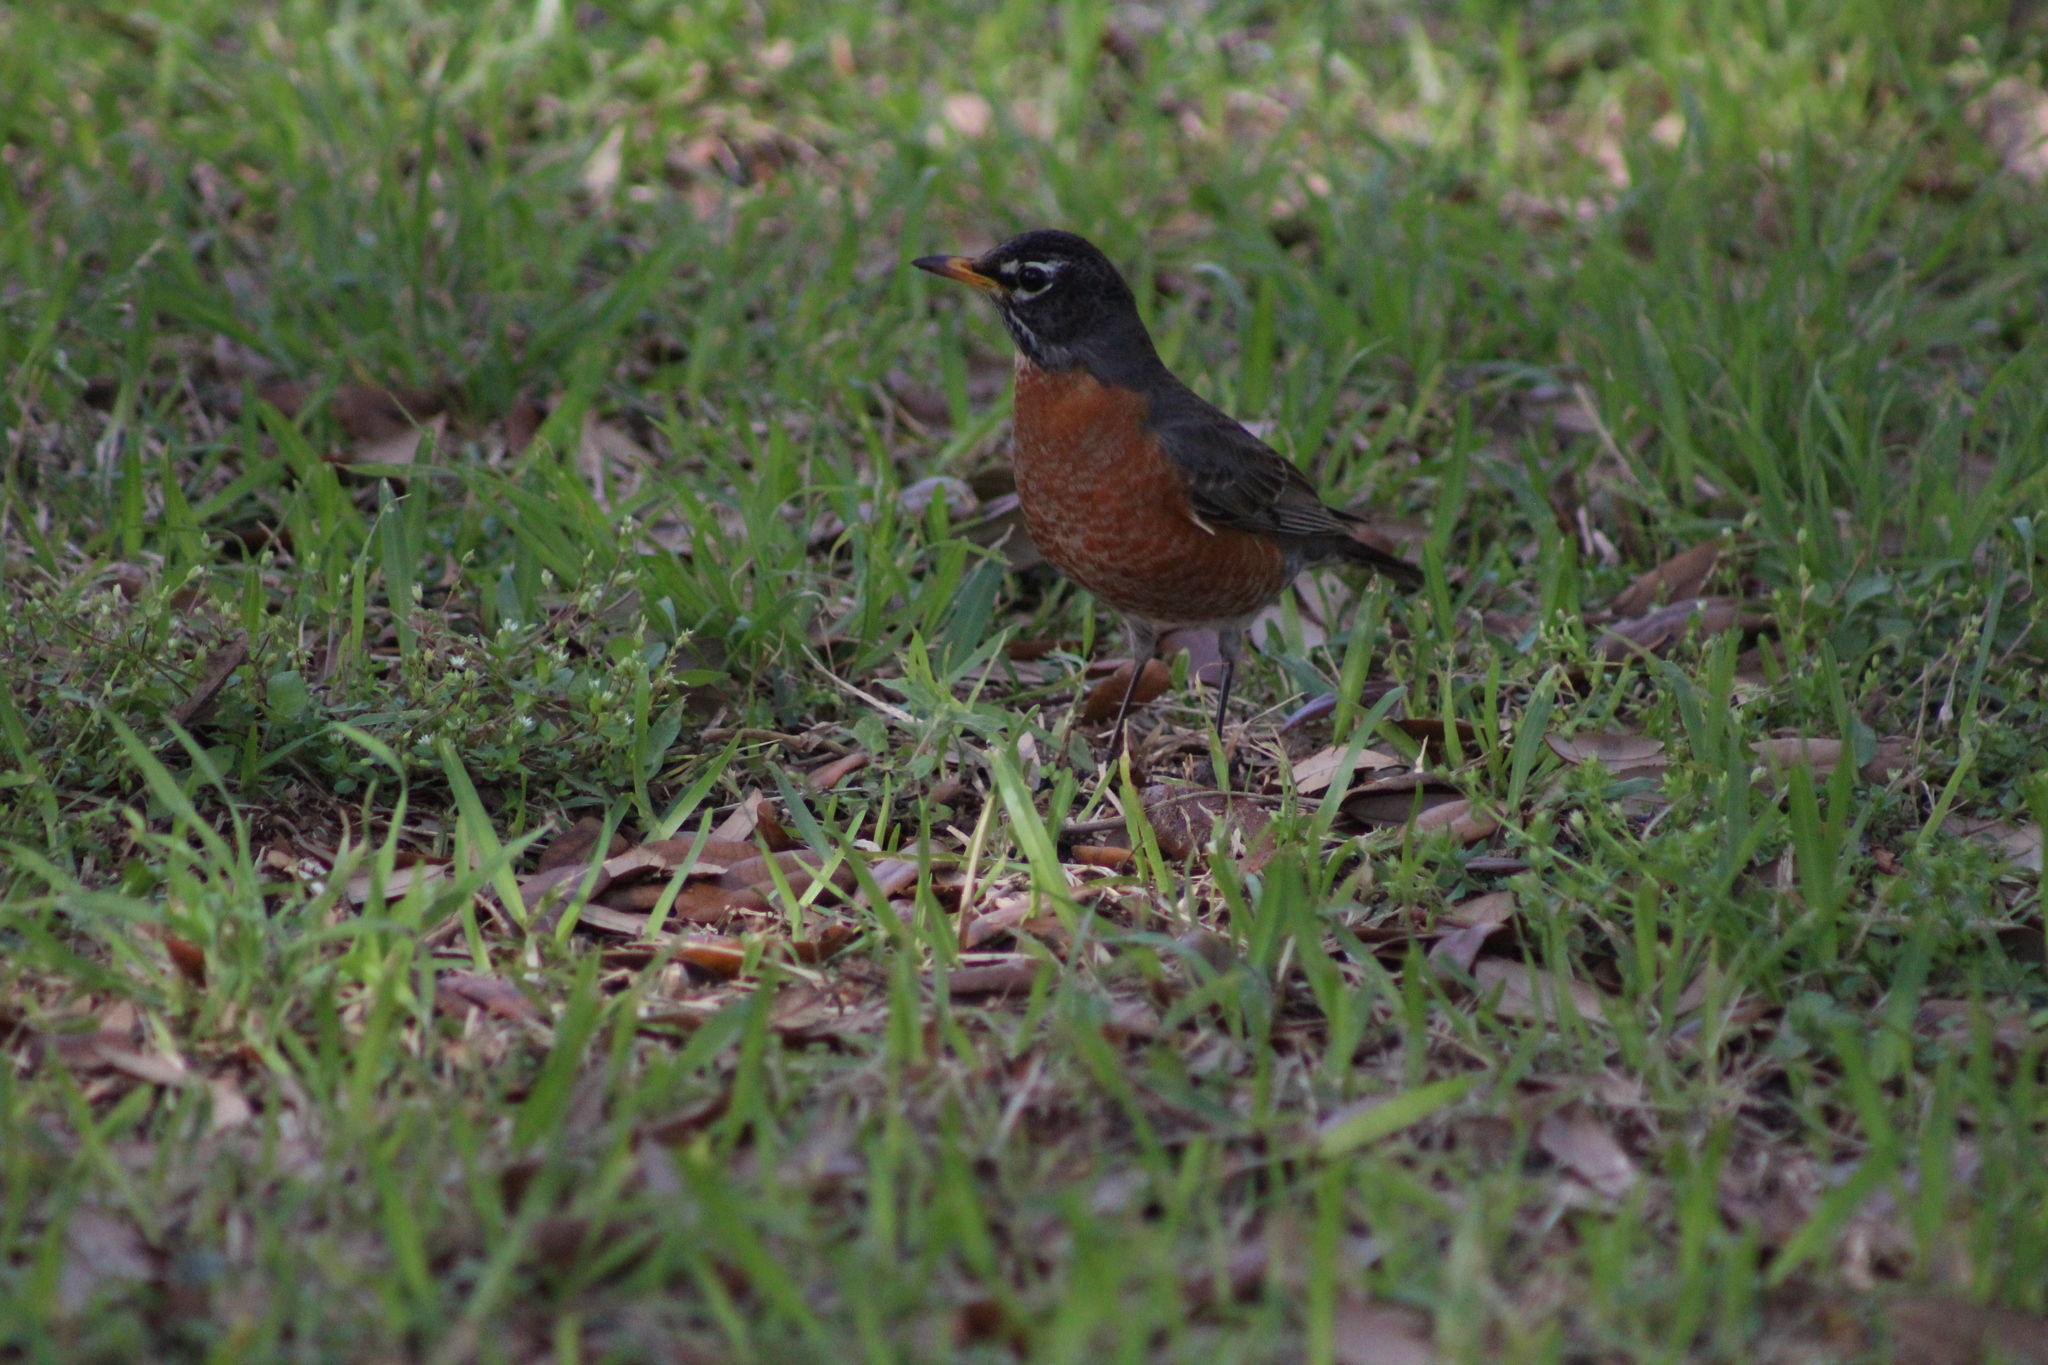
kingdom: Animalia
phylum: Chordata
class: Aves
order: Passeriformes
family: Turdidae
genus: Turdus
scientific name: Turdus migratorius
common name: American robin
